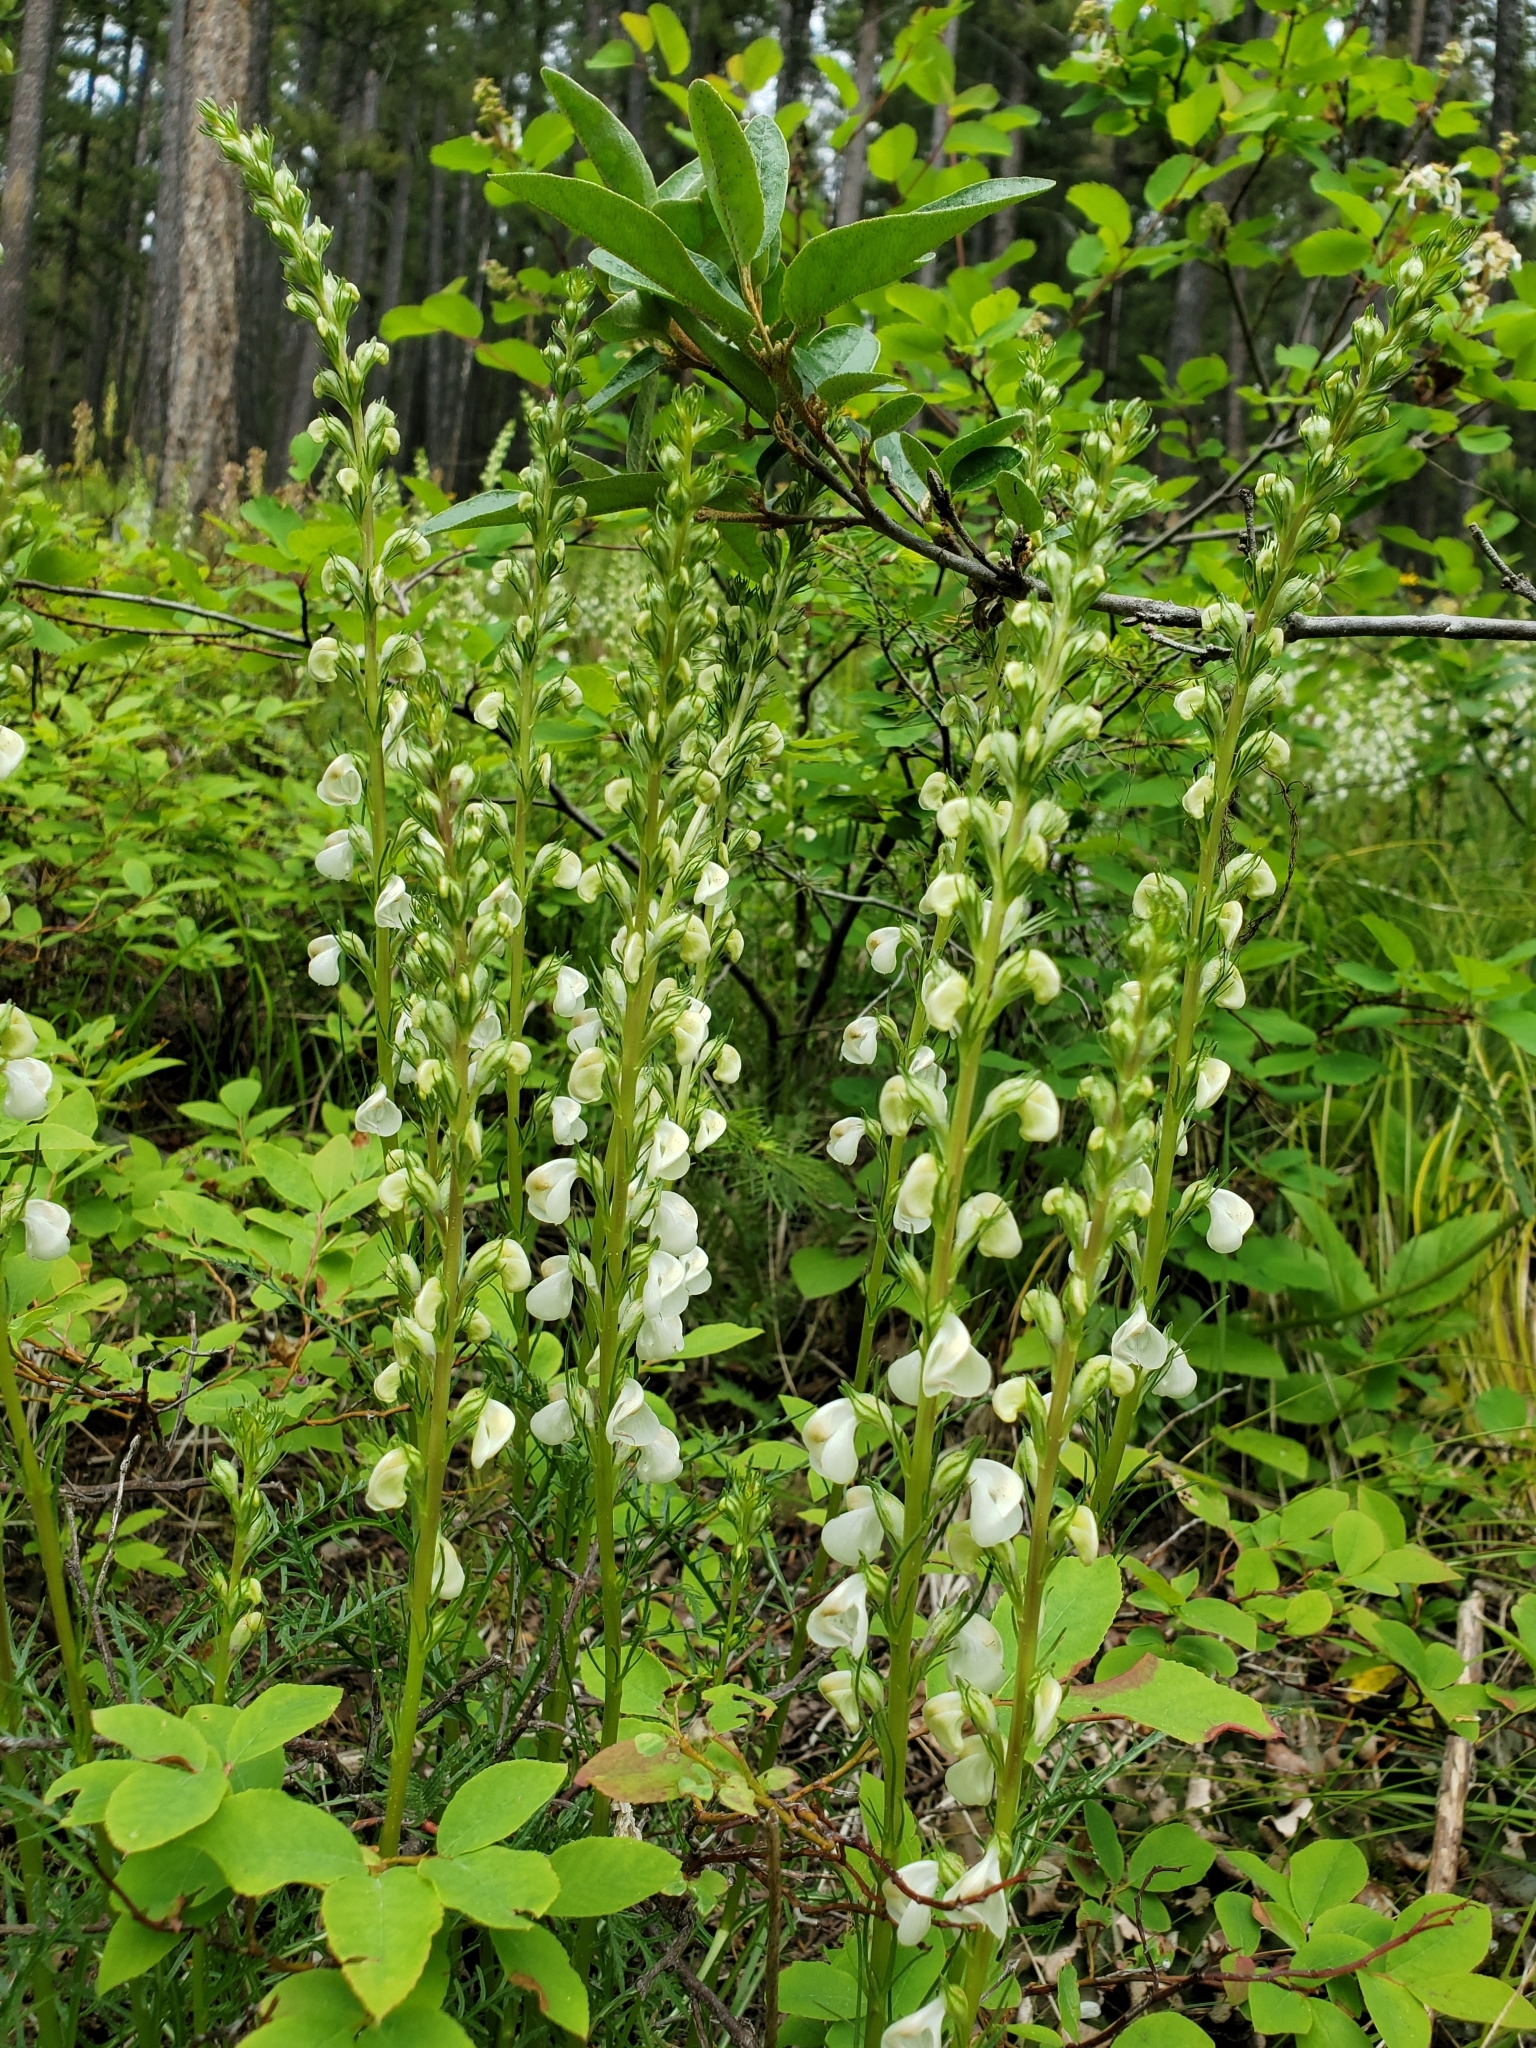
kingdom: Plantae
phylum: Tracheophyta
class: Magnoliopsida
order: Lamiales
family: Orobanchaceae
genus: Pedicularis
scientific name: Pedicularis contorta
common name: Coiled lousewort
